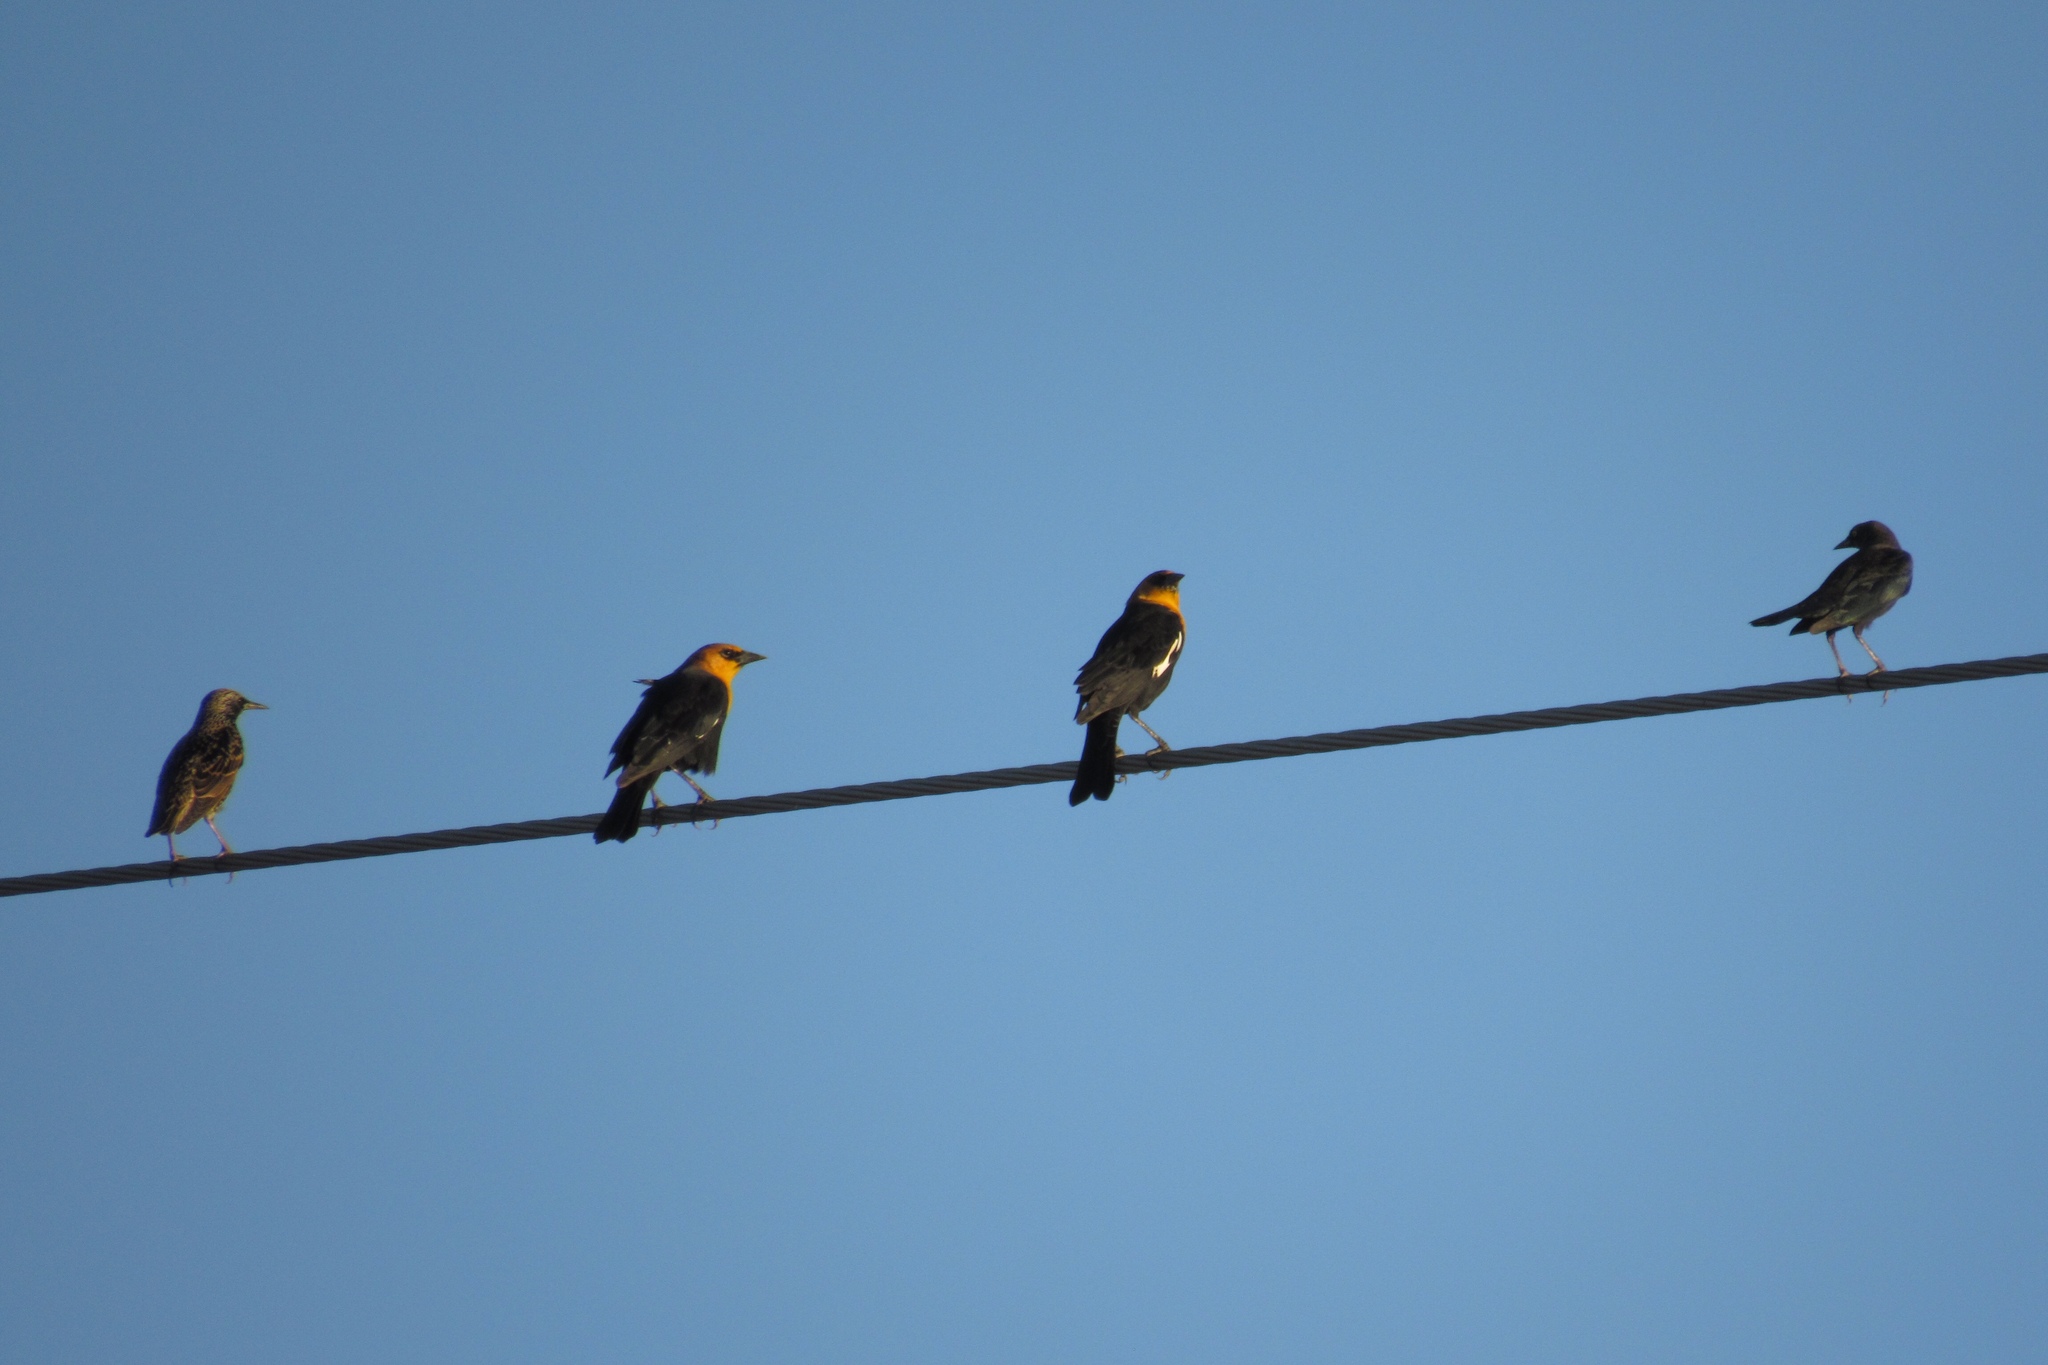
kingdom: Animalia
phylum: Chordata
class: Aves
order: Passeriformes
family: Icteridae
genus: Xanthocephalus
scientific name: Xanthocephalus xanthocephalus
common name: Yellow-headed blackbird
